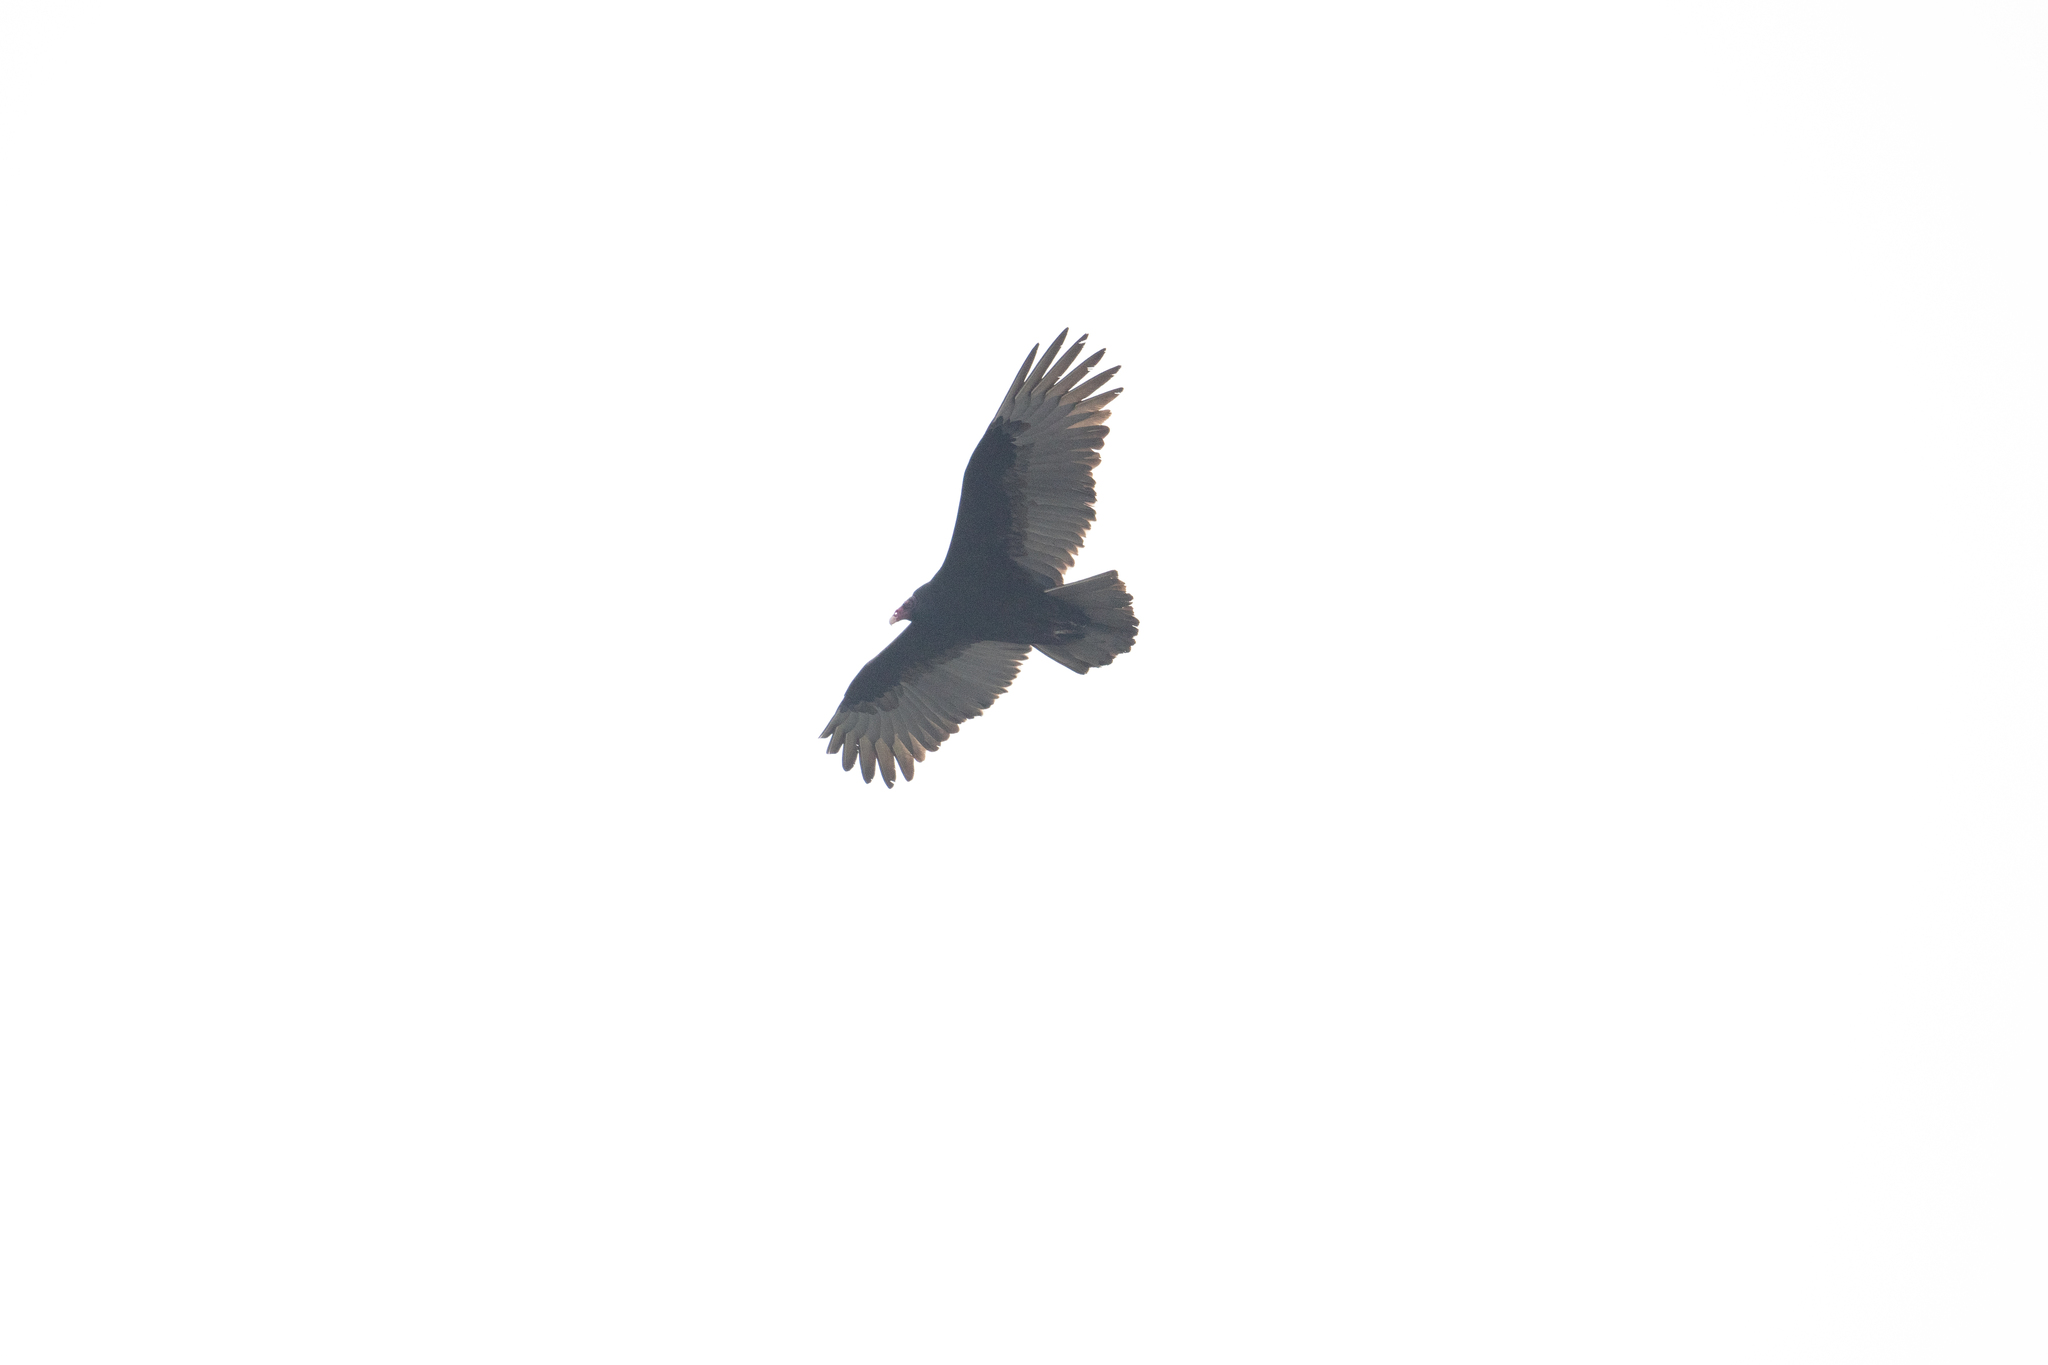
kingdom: Animalia
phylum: Chordata
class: Aves
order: Accipitriformes
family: Cathartidae
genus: Cathartes
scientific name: Cathartes aura
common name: Turkey vulture
